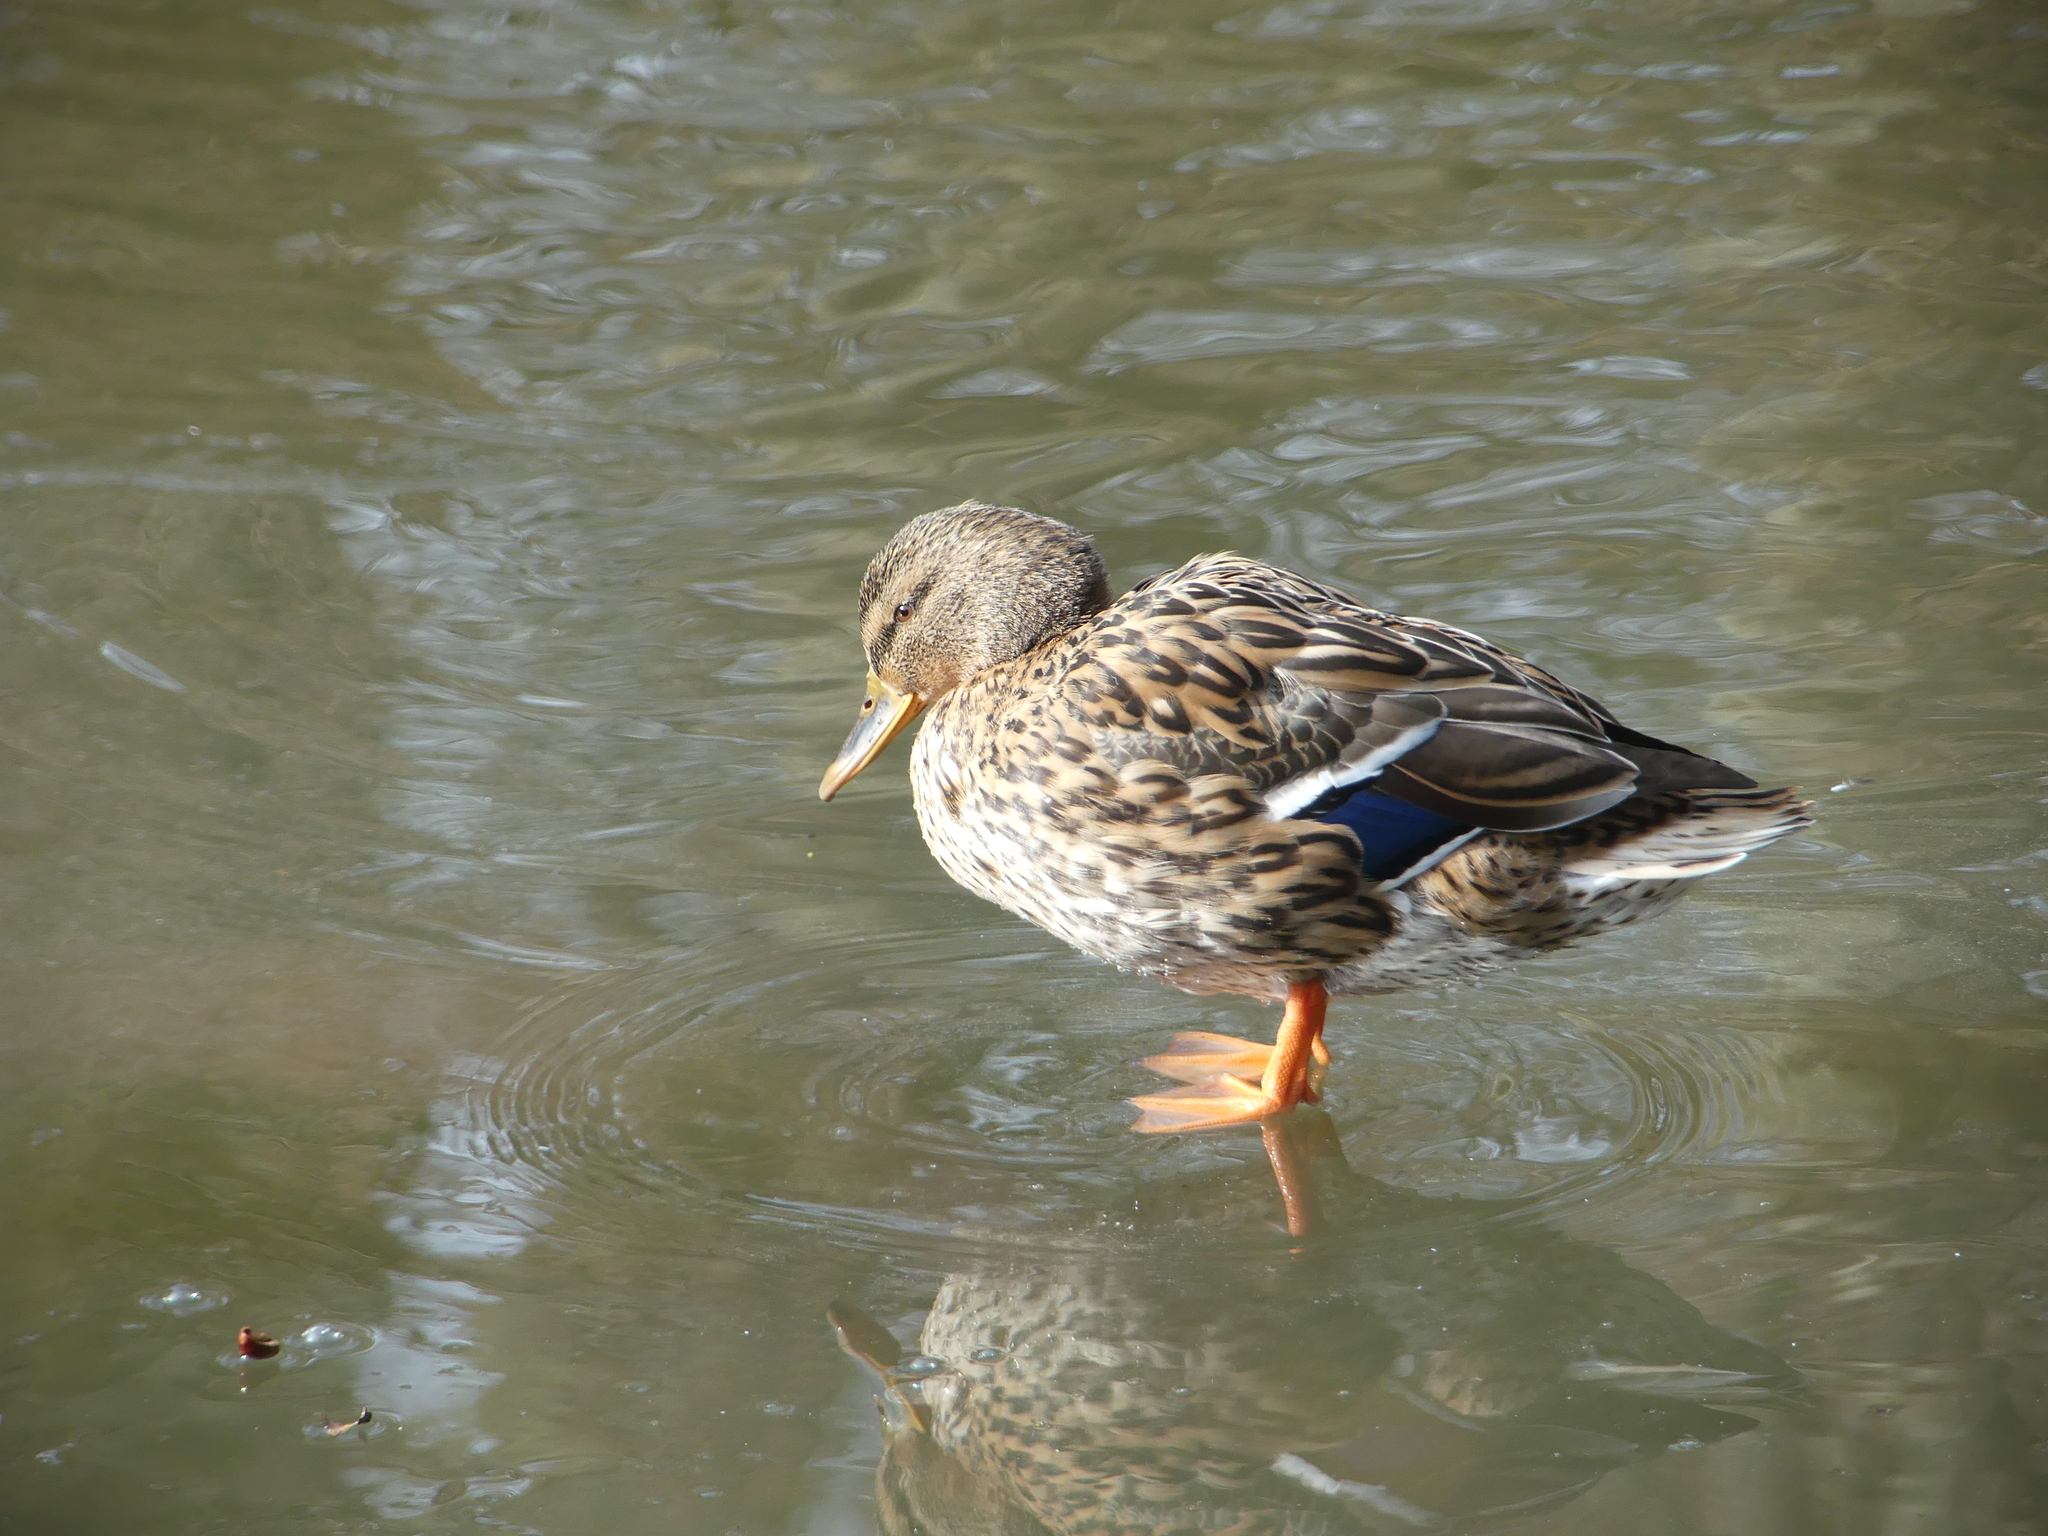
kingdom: Animalia
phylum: Chordata
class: Aves
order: Anseriformes
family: Anatidae
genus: Anas
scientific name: Anas platyrhynchos
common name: Mallard
